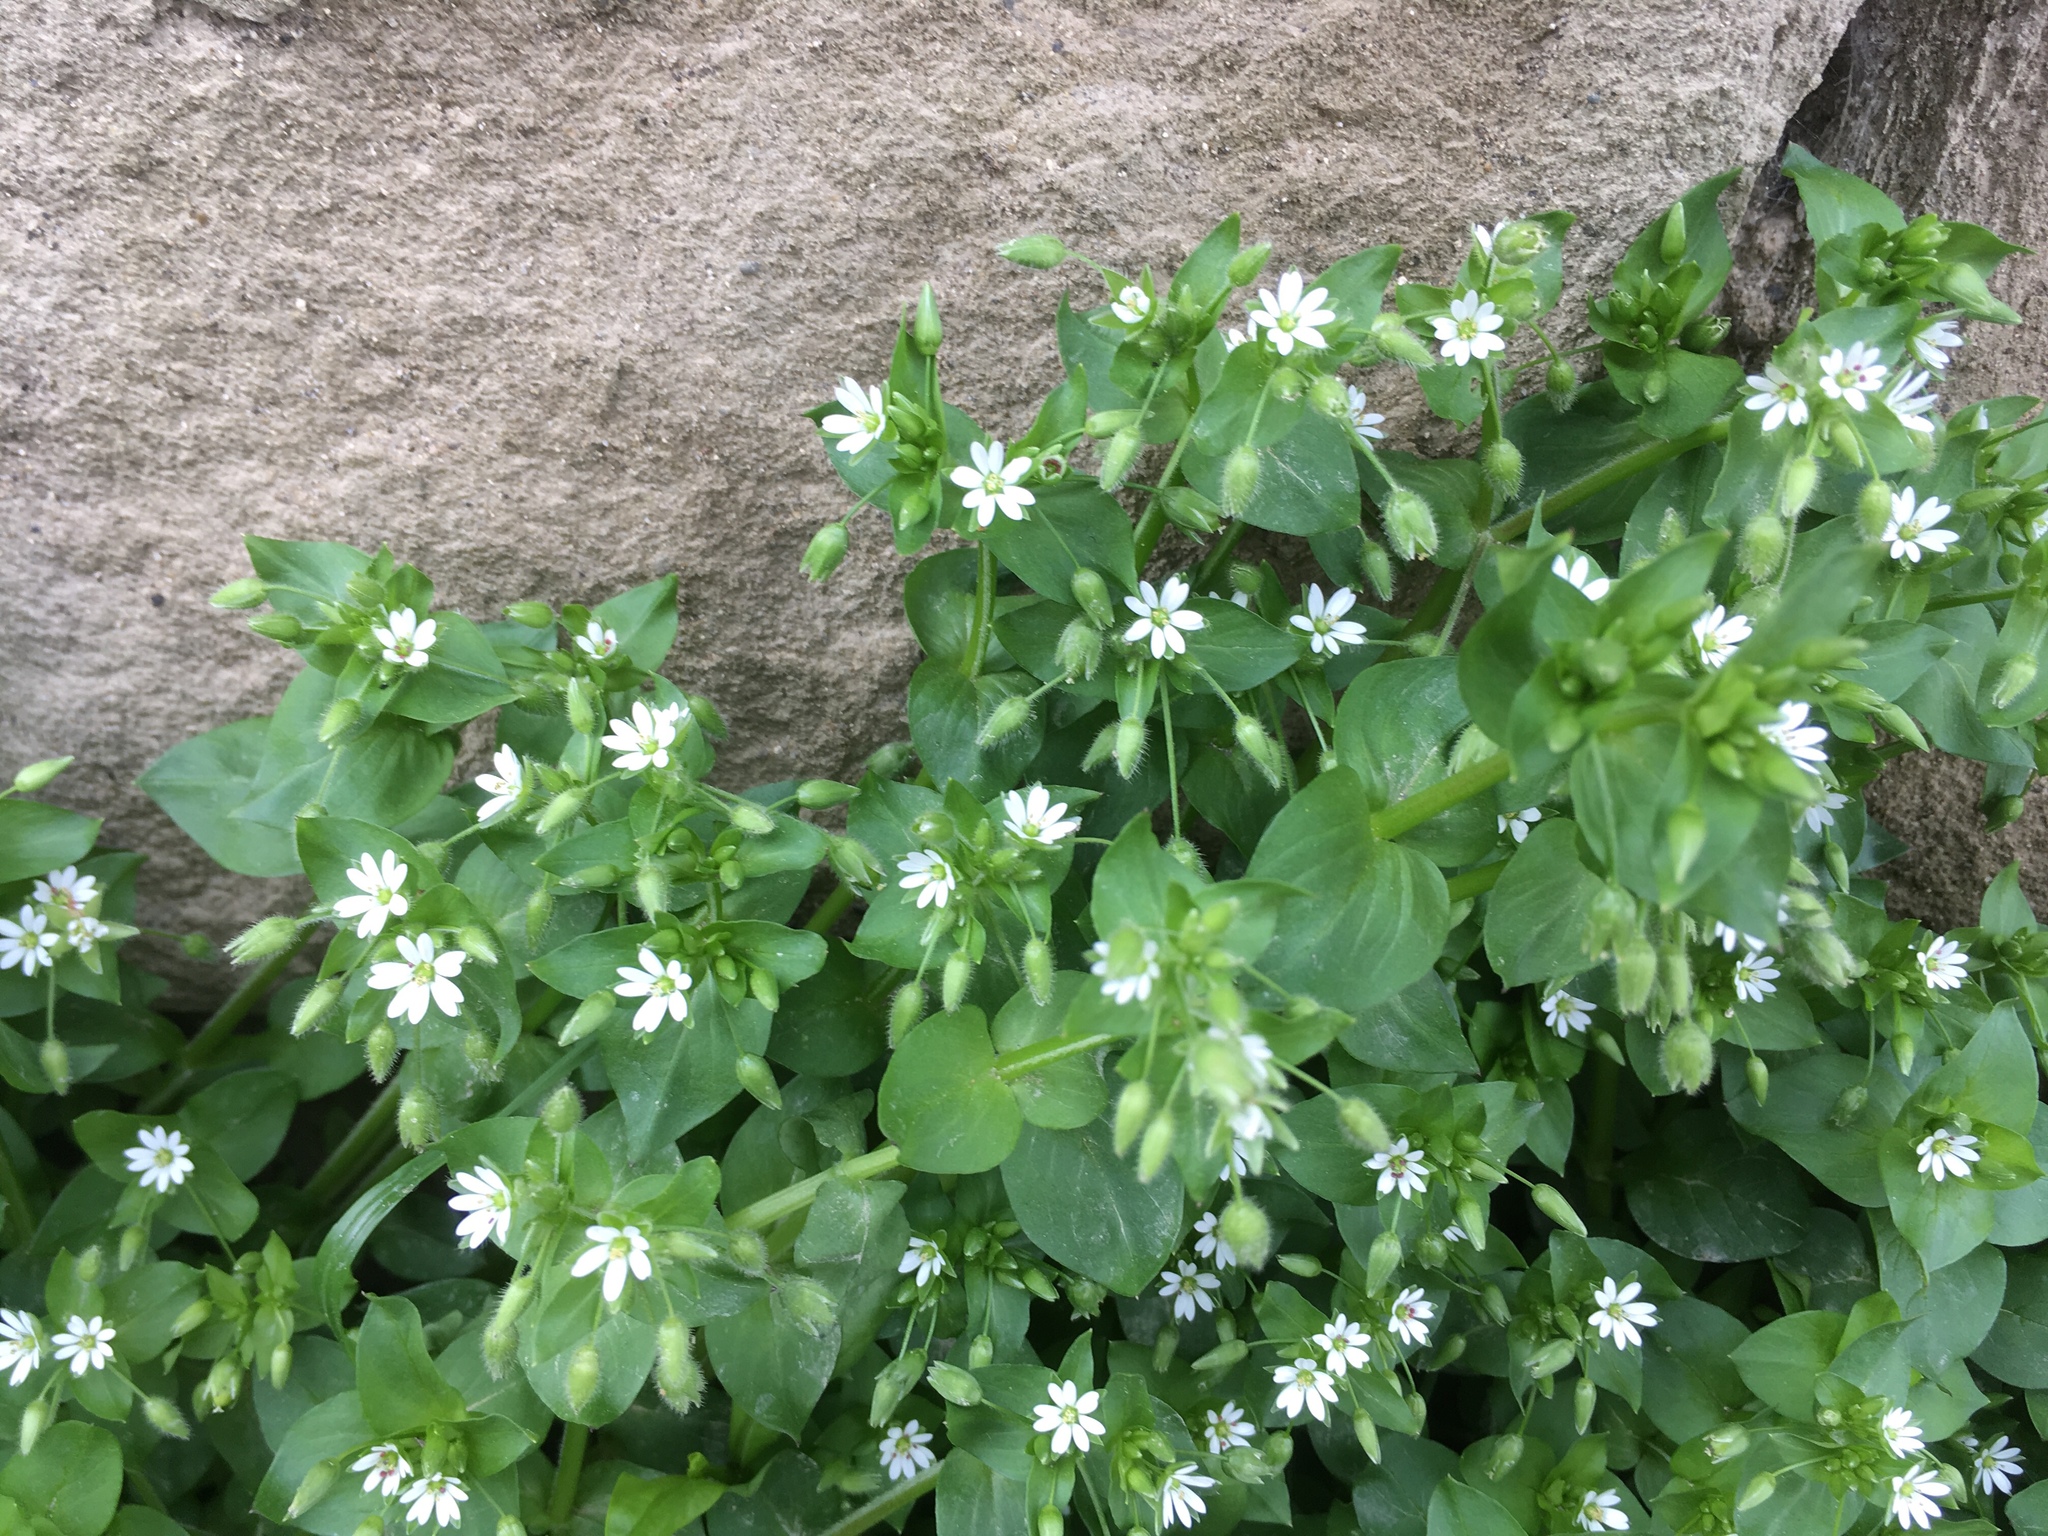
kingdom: Plantae
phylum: Tracheophyta
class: Magnoliopsida
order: Caryophyllales
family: Caryophyllaceae
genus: Stellaria
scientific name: Stellaria media
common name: Common chickweed
